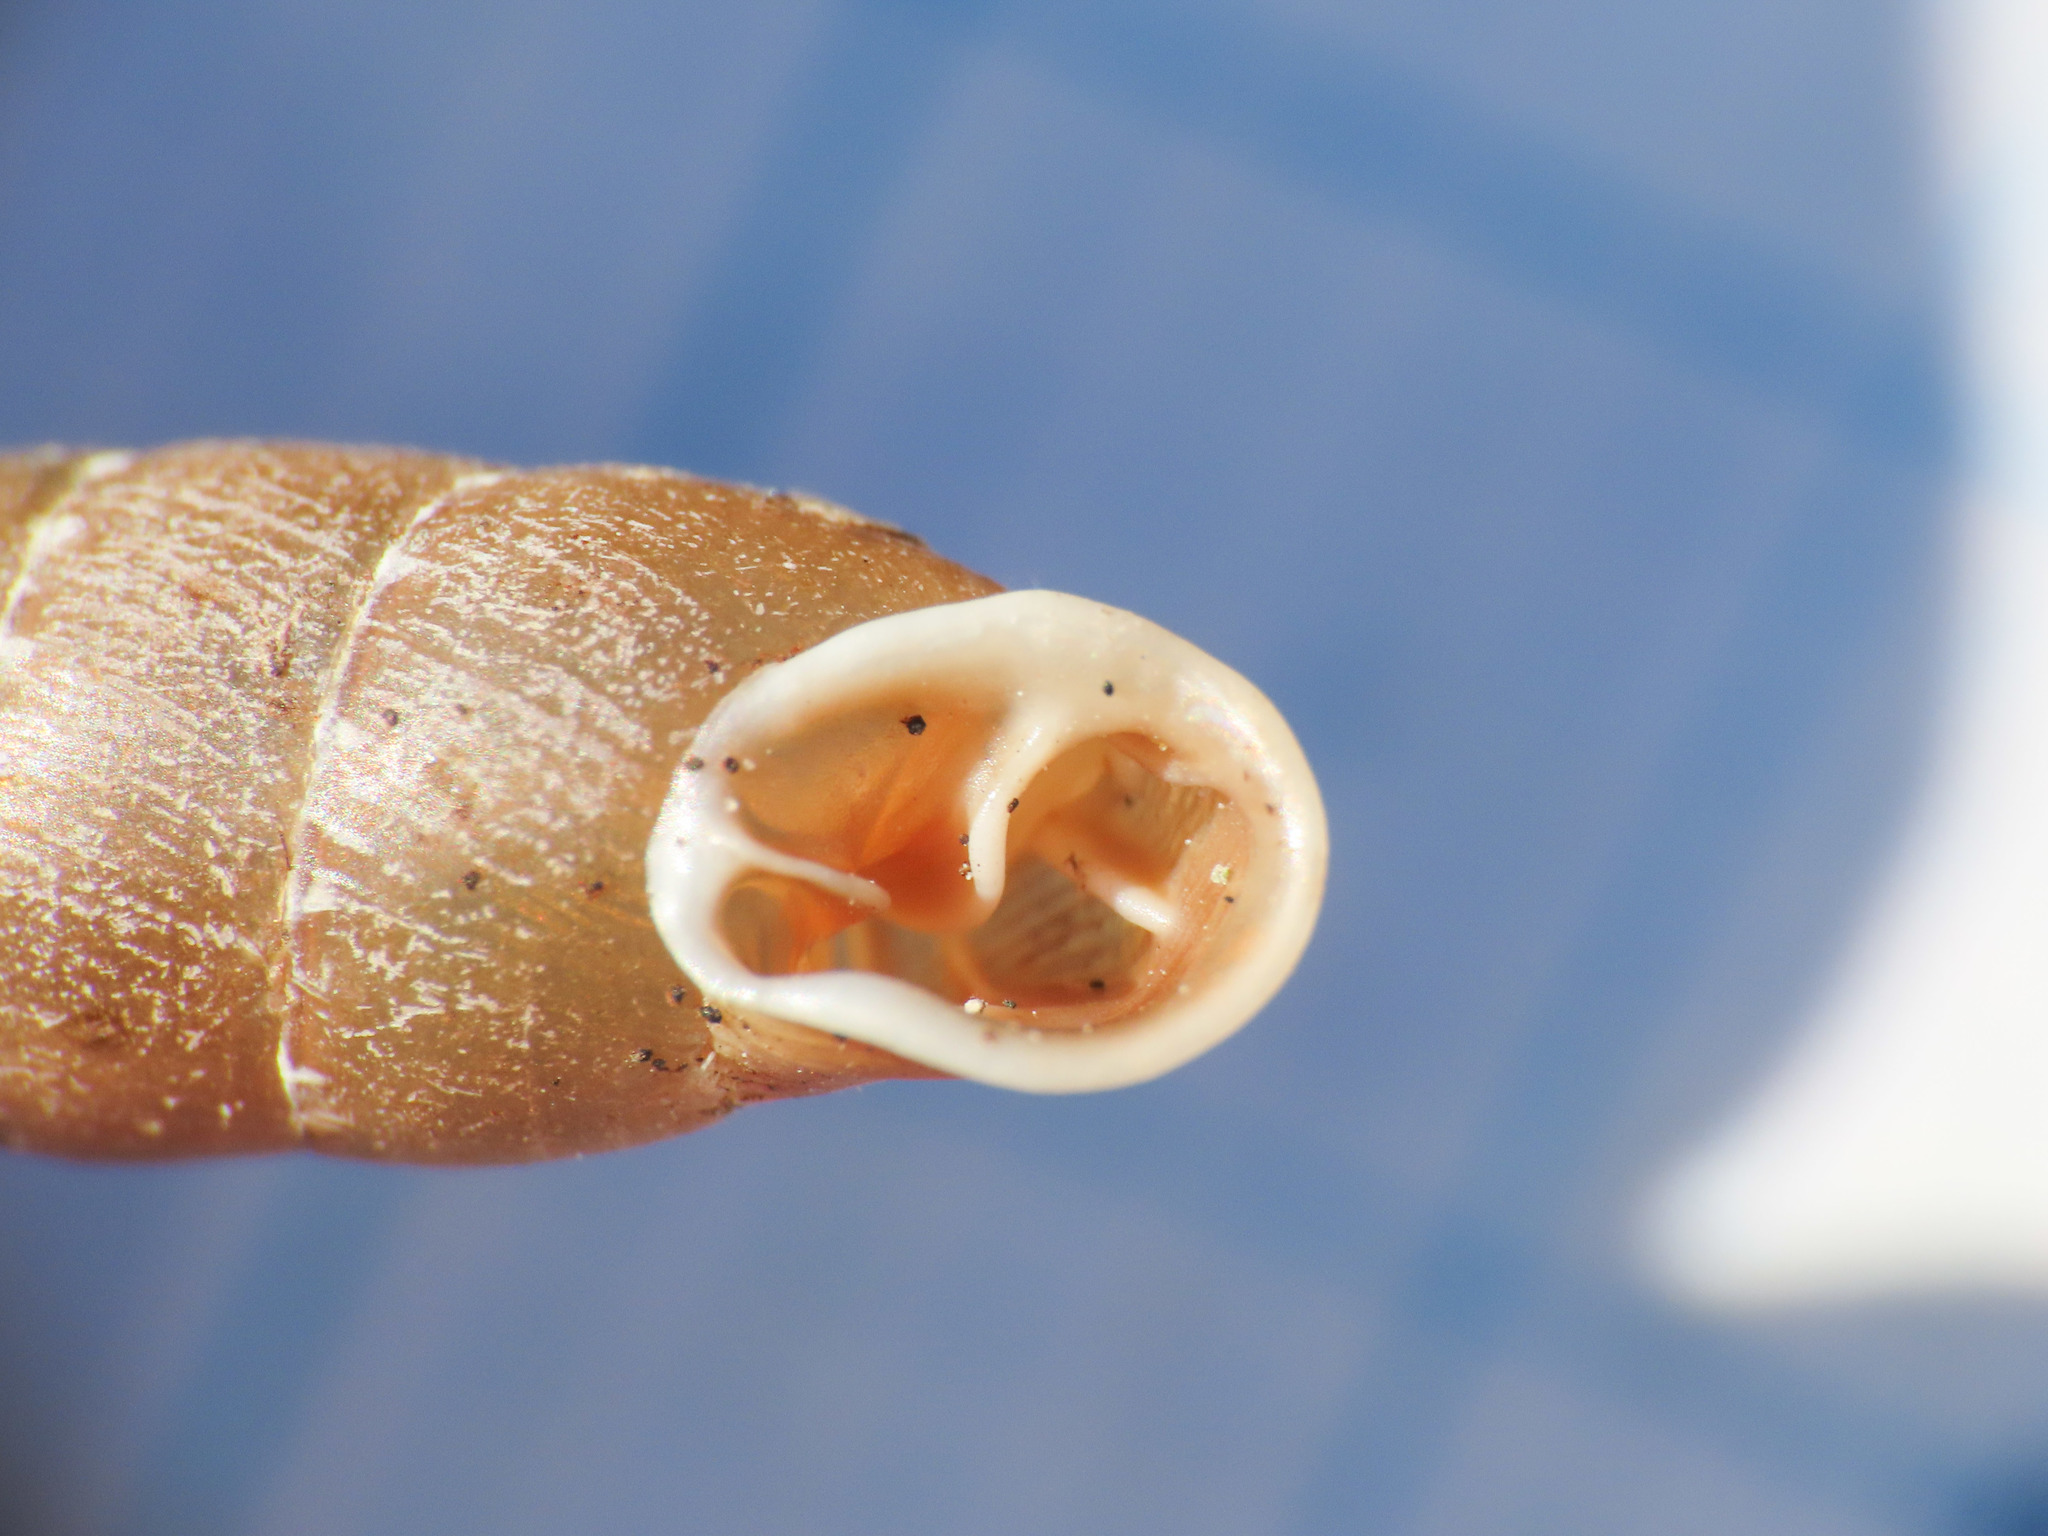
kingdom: Animalia
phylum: Mollusca
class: Gastropoda
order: Stylommatophora
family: Clausiliidae
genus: Gibbularia
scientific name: Gibbularia gibbula
